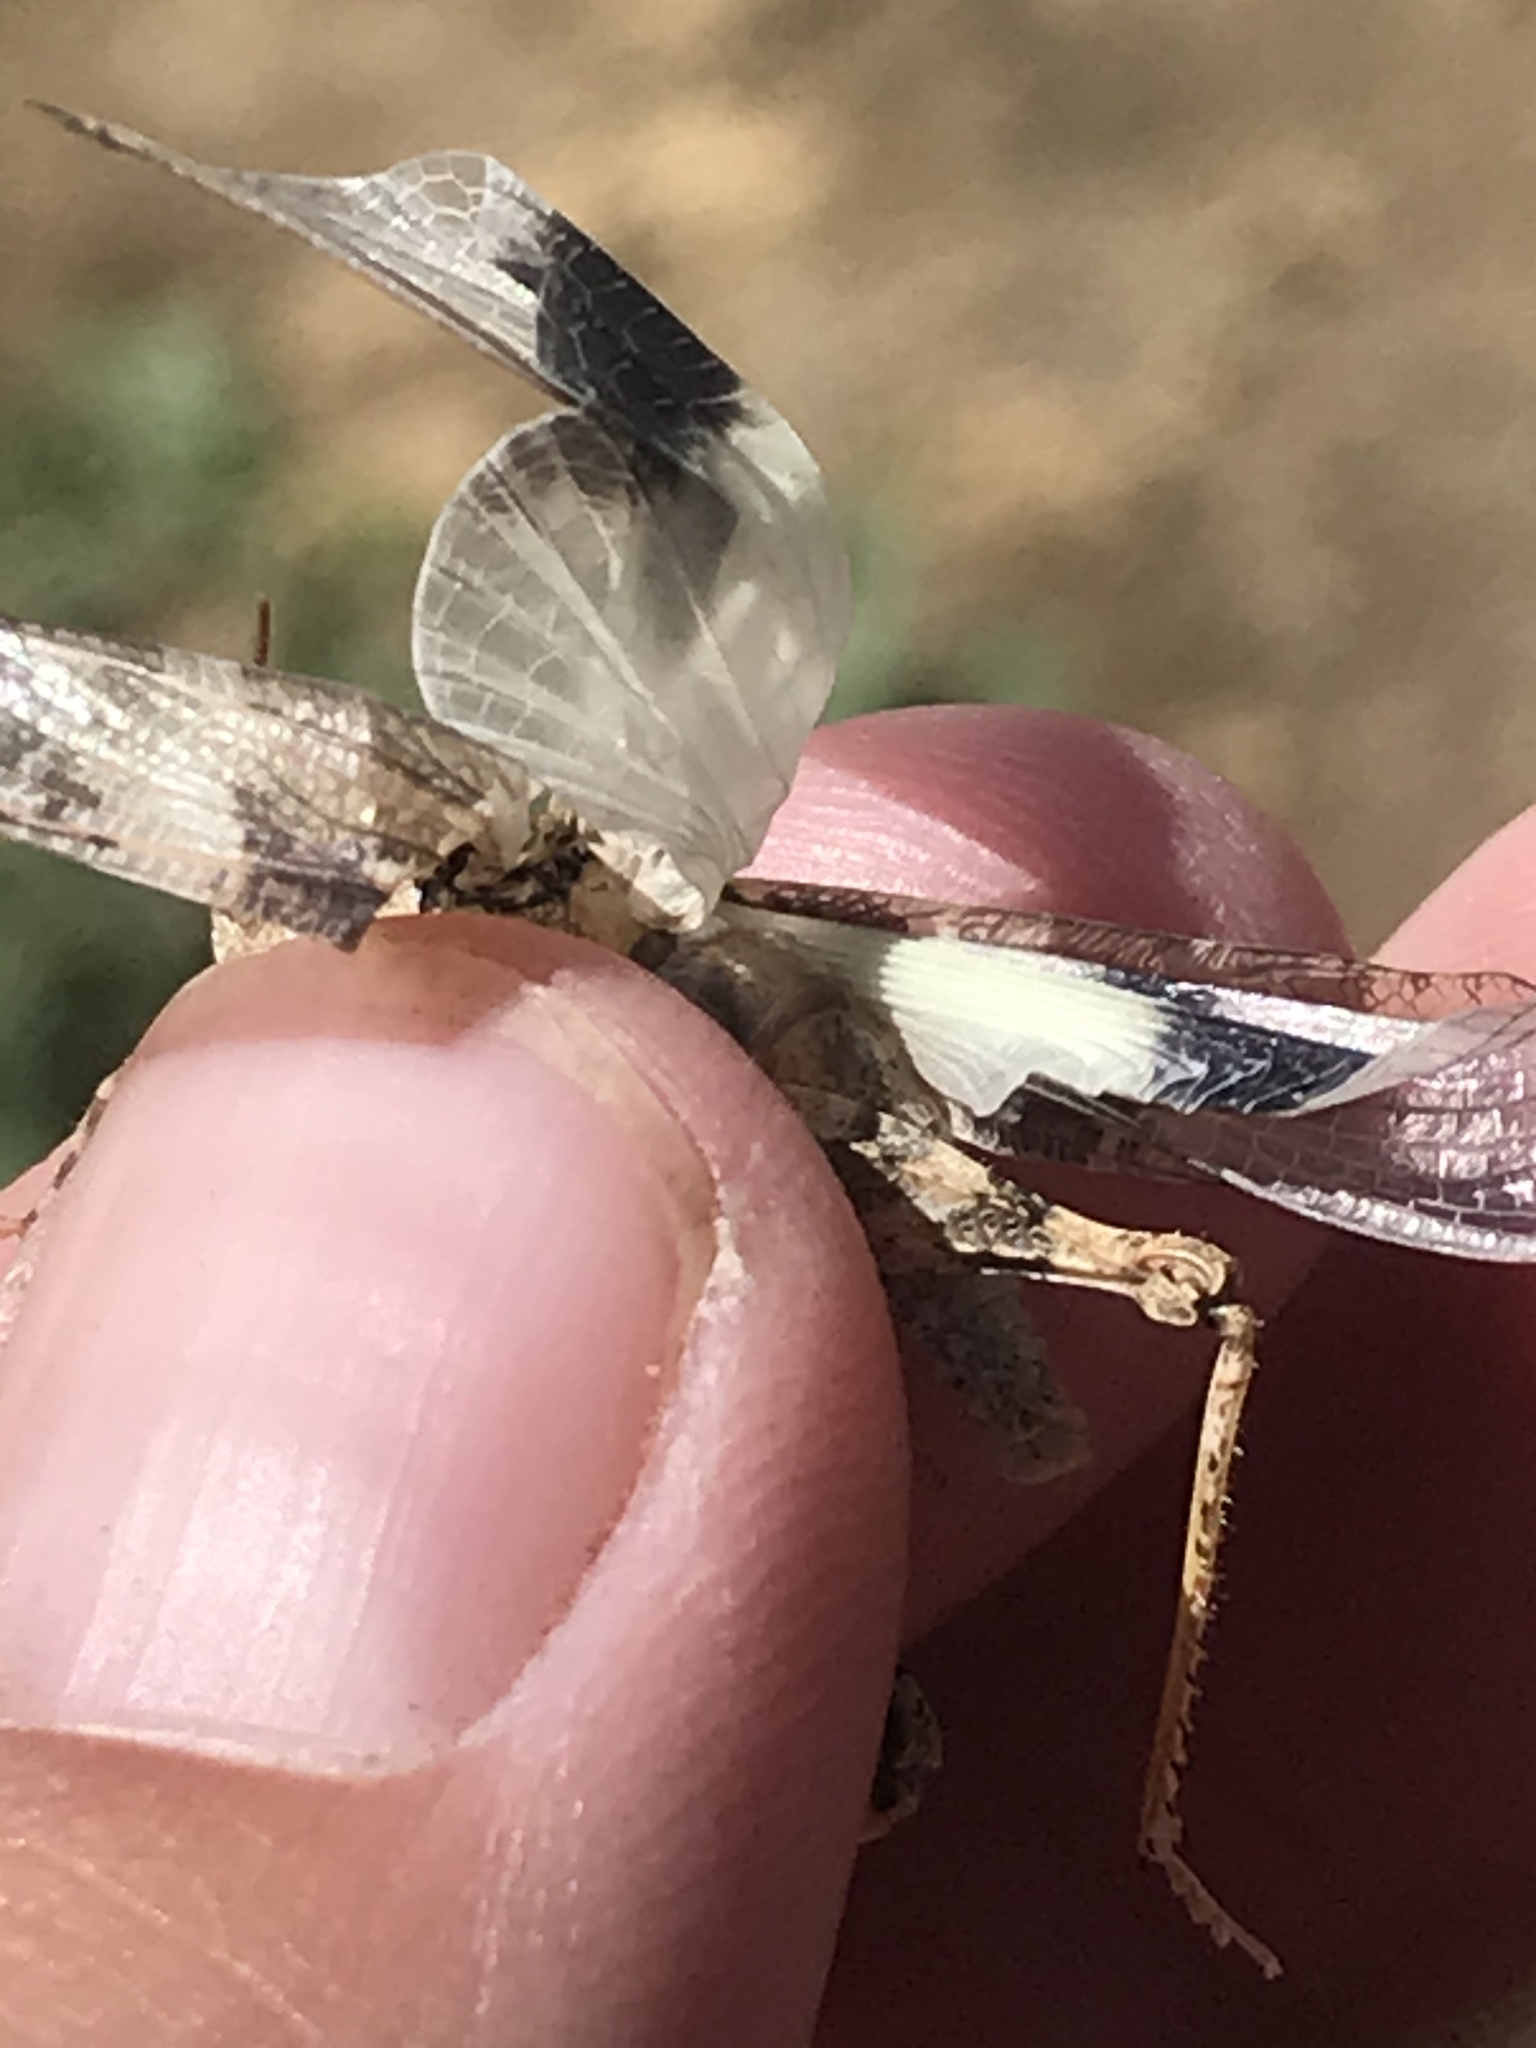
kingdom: Animalia
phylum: Arthropoda
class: Insecta
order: Orthoptera
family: Acrididae
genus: Trimerotropis
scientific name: Trimerotropis pallidipennis
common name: Pallid-winged grasshopper
